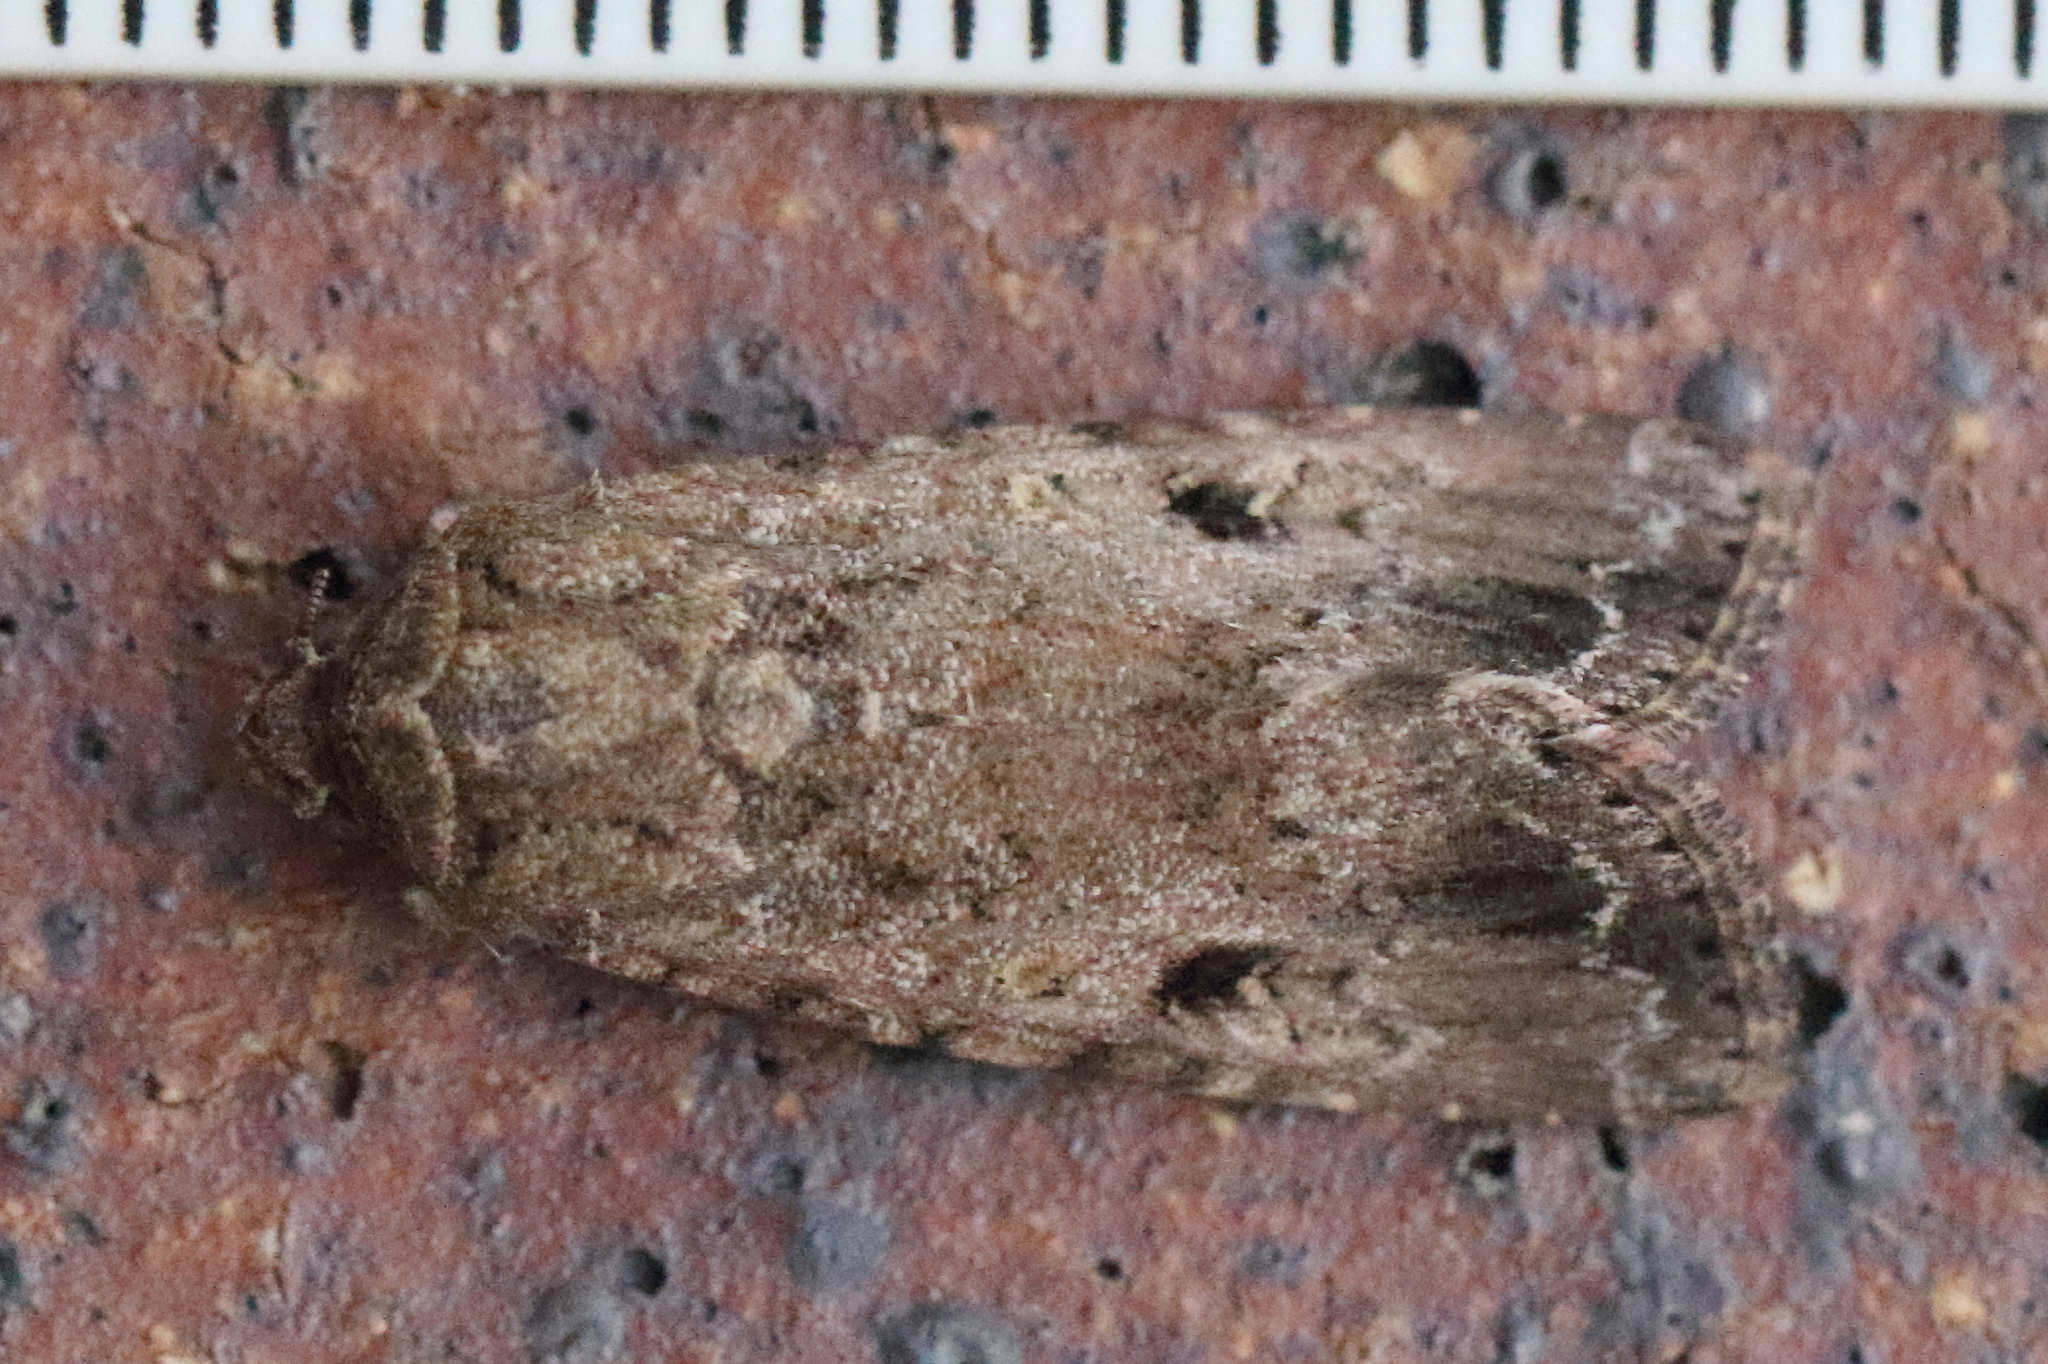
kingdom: Animalia
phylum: Arthropoda
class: Insecta
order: Lepidoptera
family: Noctuidae
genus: Spodoptera
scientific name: Spodoptera mauritia
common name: Lawn armyworm
